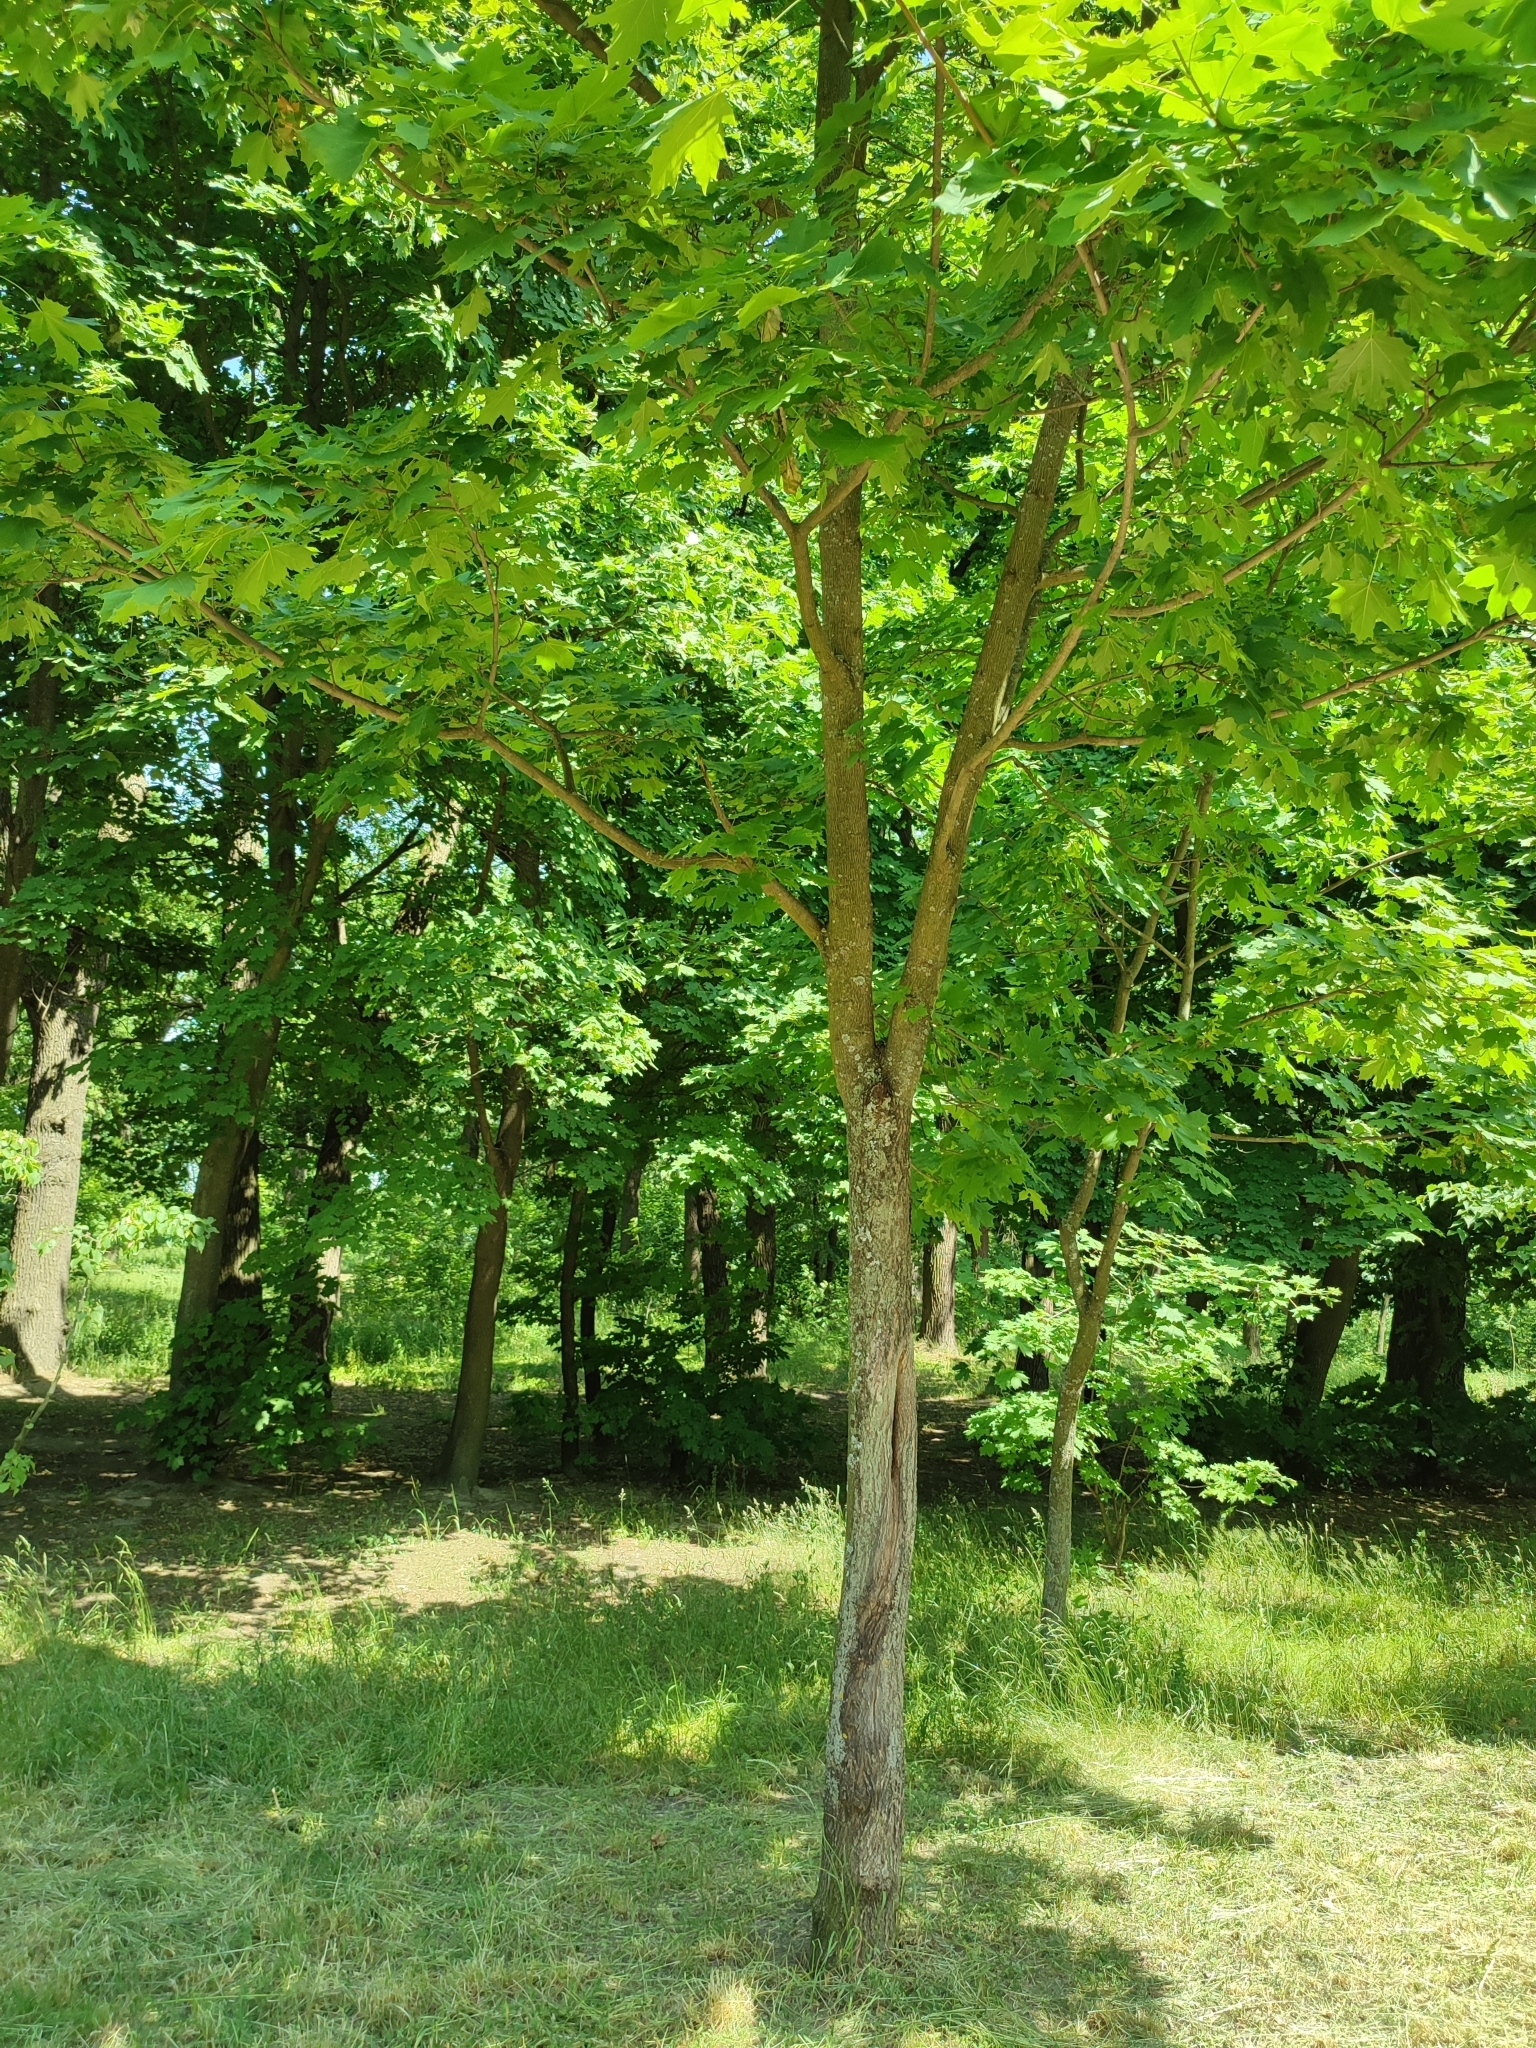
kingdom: Plantae
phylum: Tracheophyta
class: Magnoliopsida
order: Sapindales
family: Sapindaceae
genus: Acer
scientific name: Acer platanoides
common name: Norway maple
